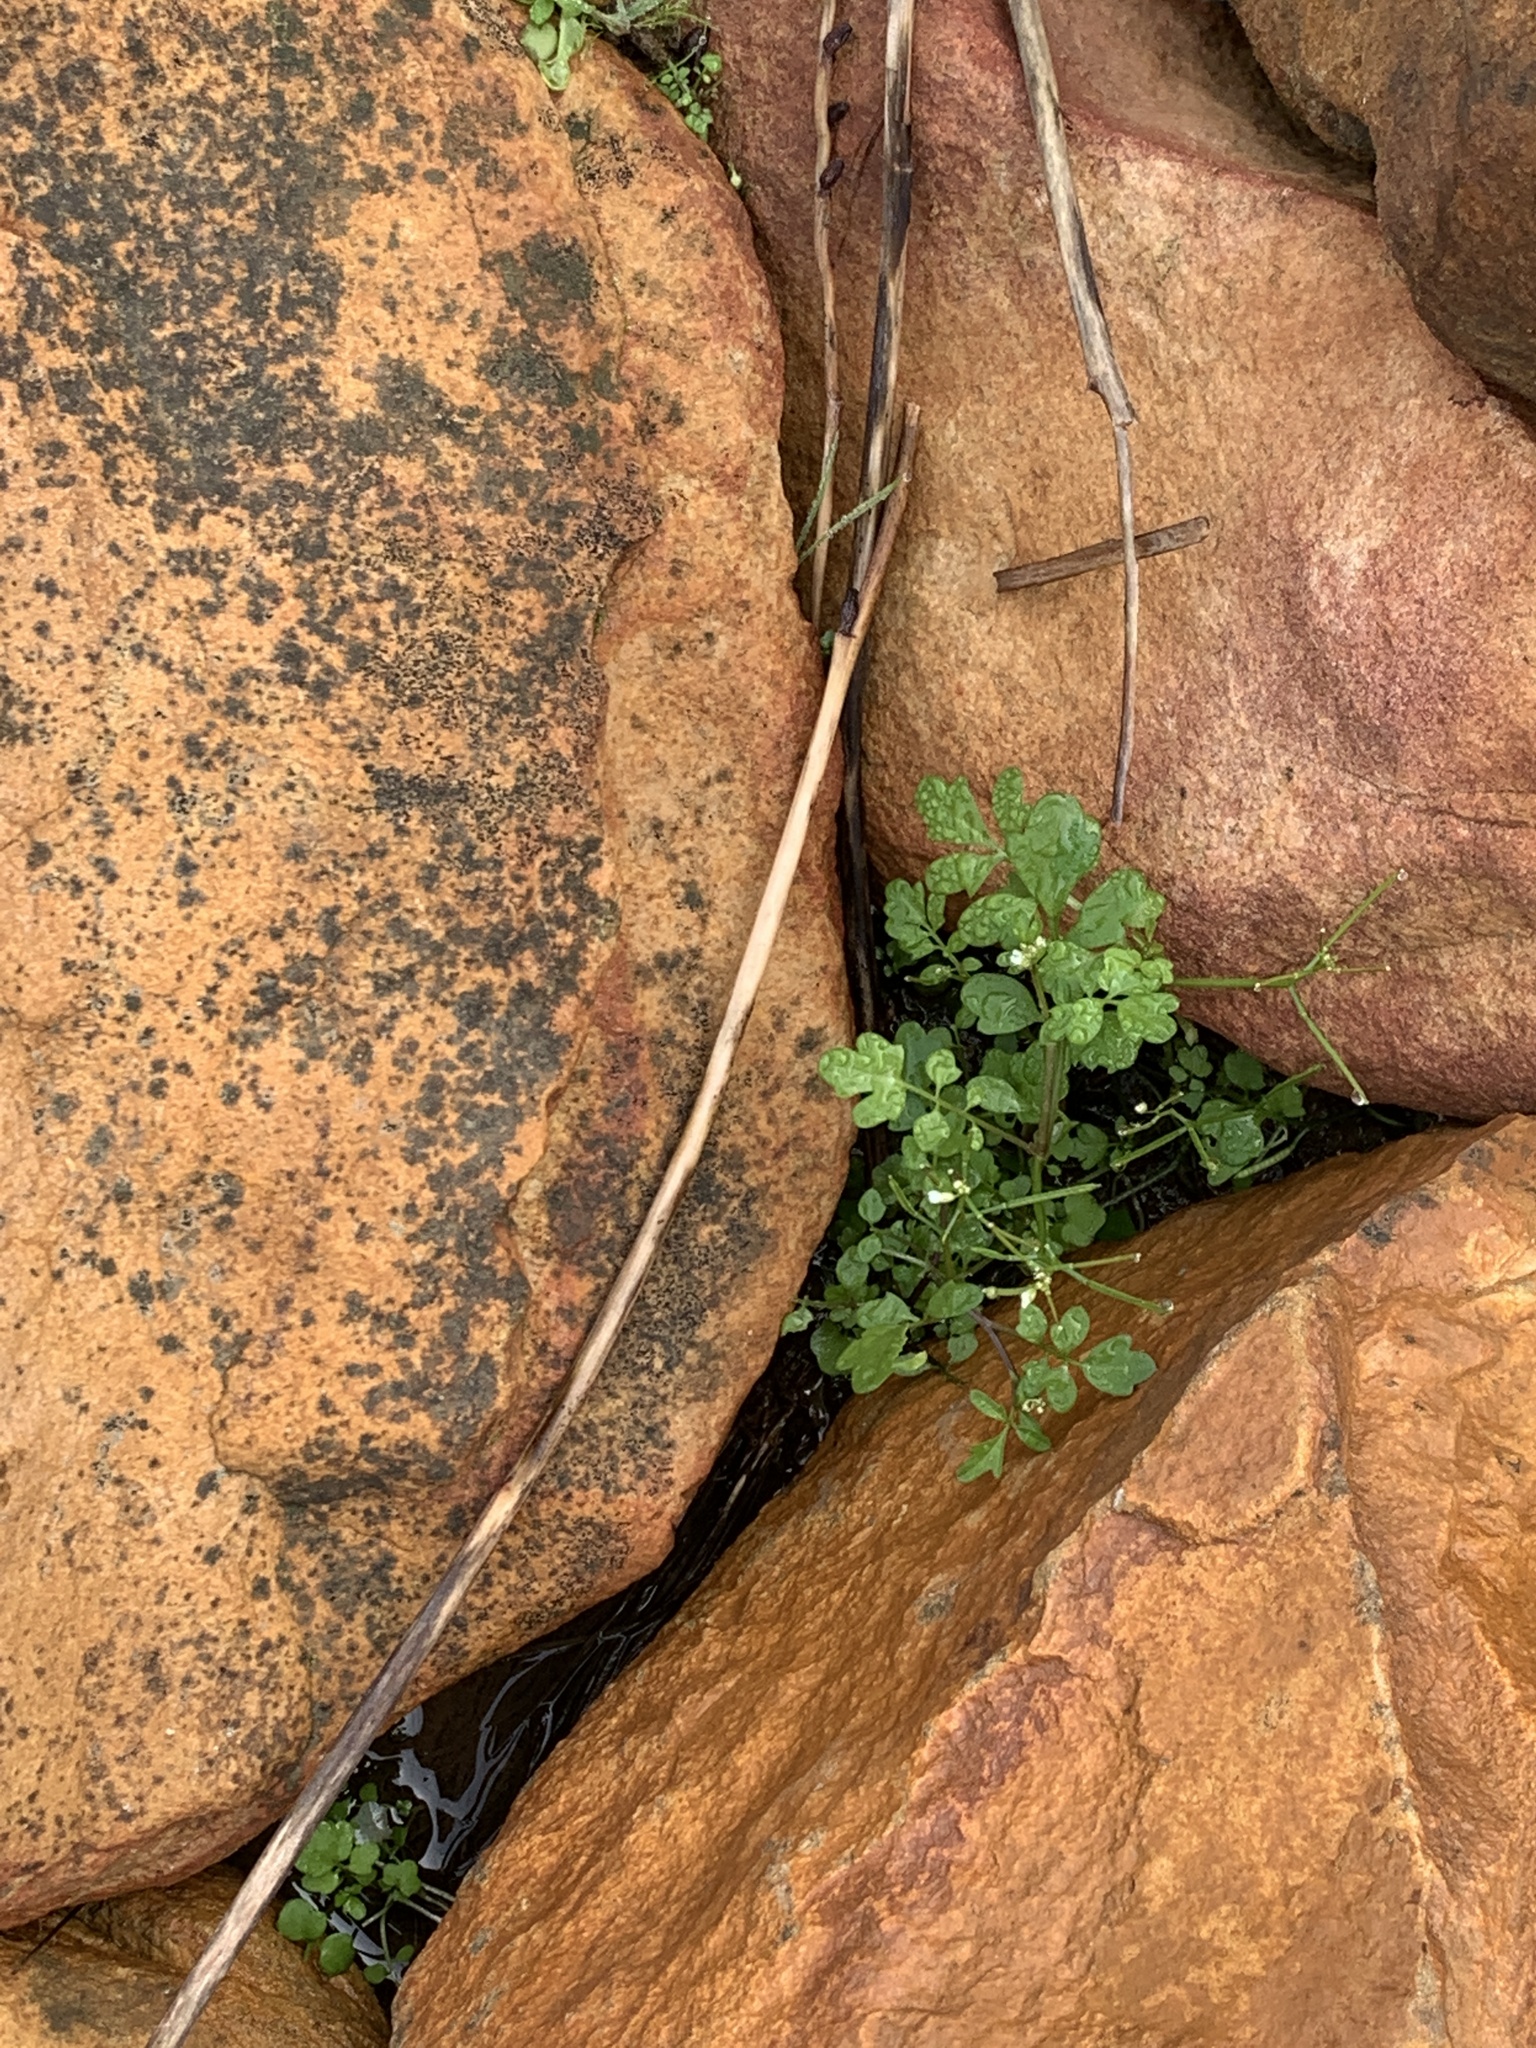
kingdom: Plantae
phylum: Tracheophyta
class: Magnoliopsida
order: Brassicales
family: Brassicaceae
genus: Cardamine
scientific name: Cardamine occulta
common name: Asian wavy bittercress
